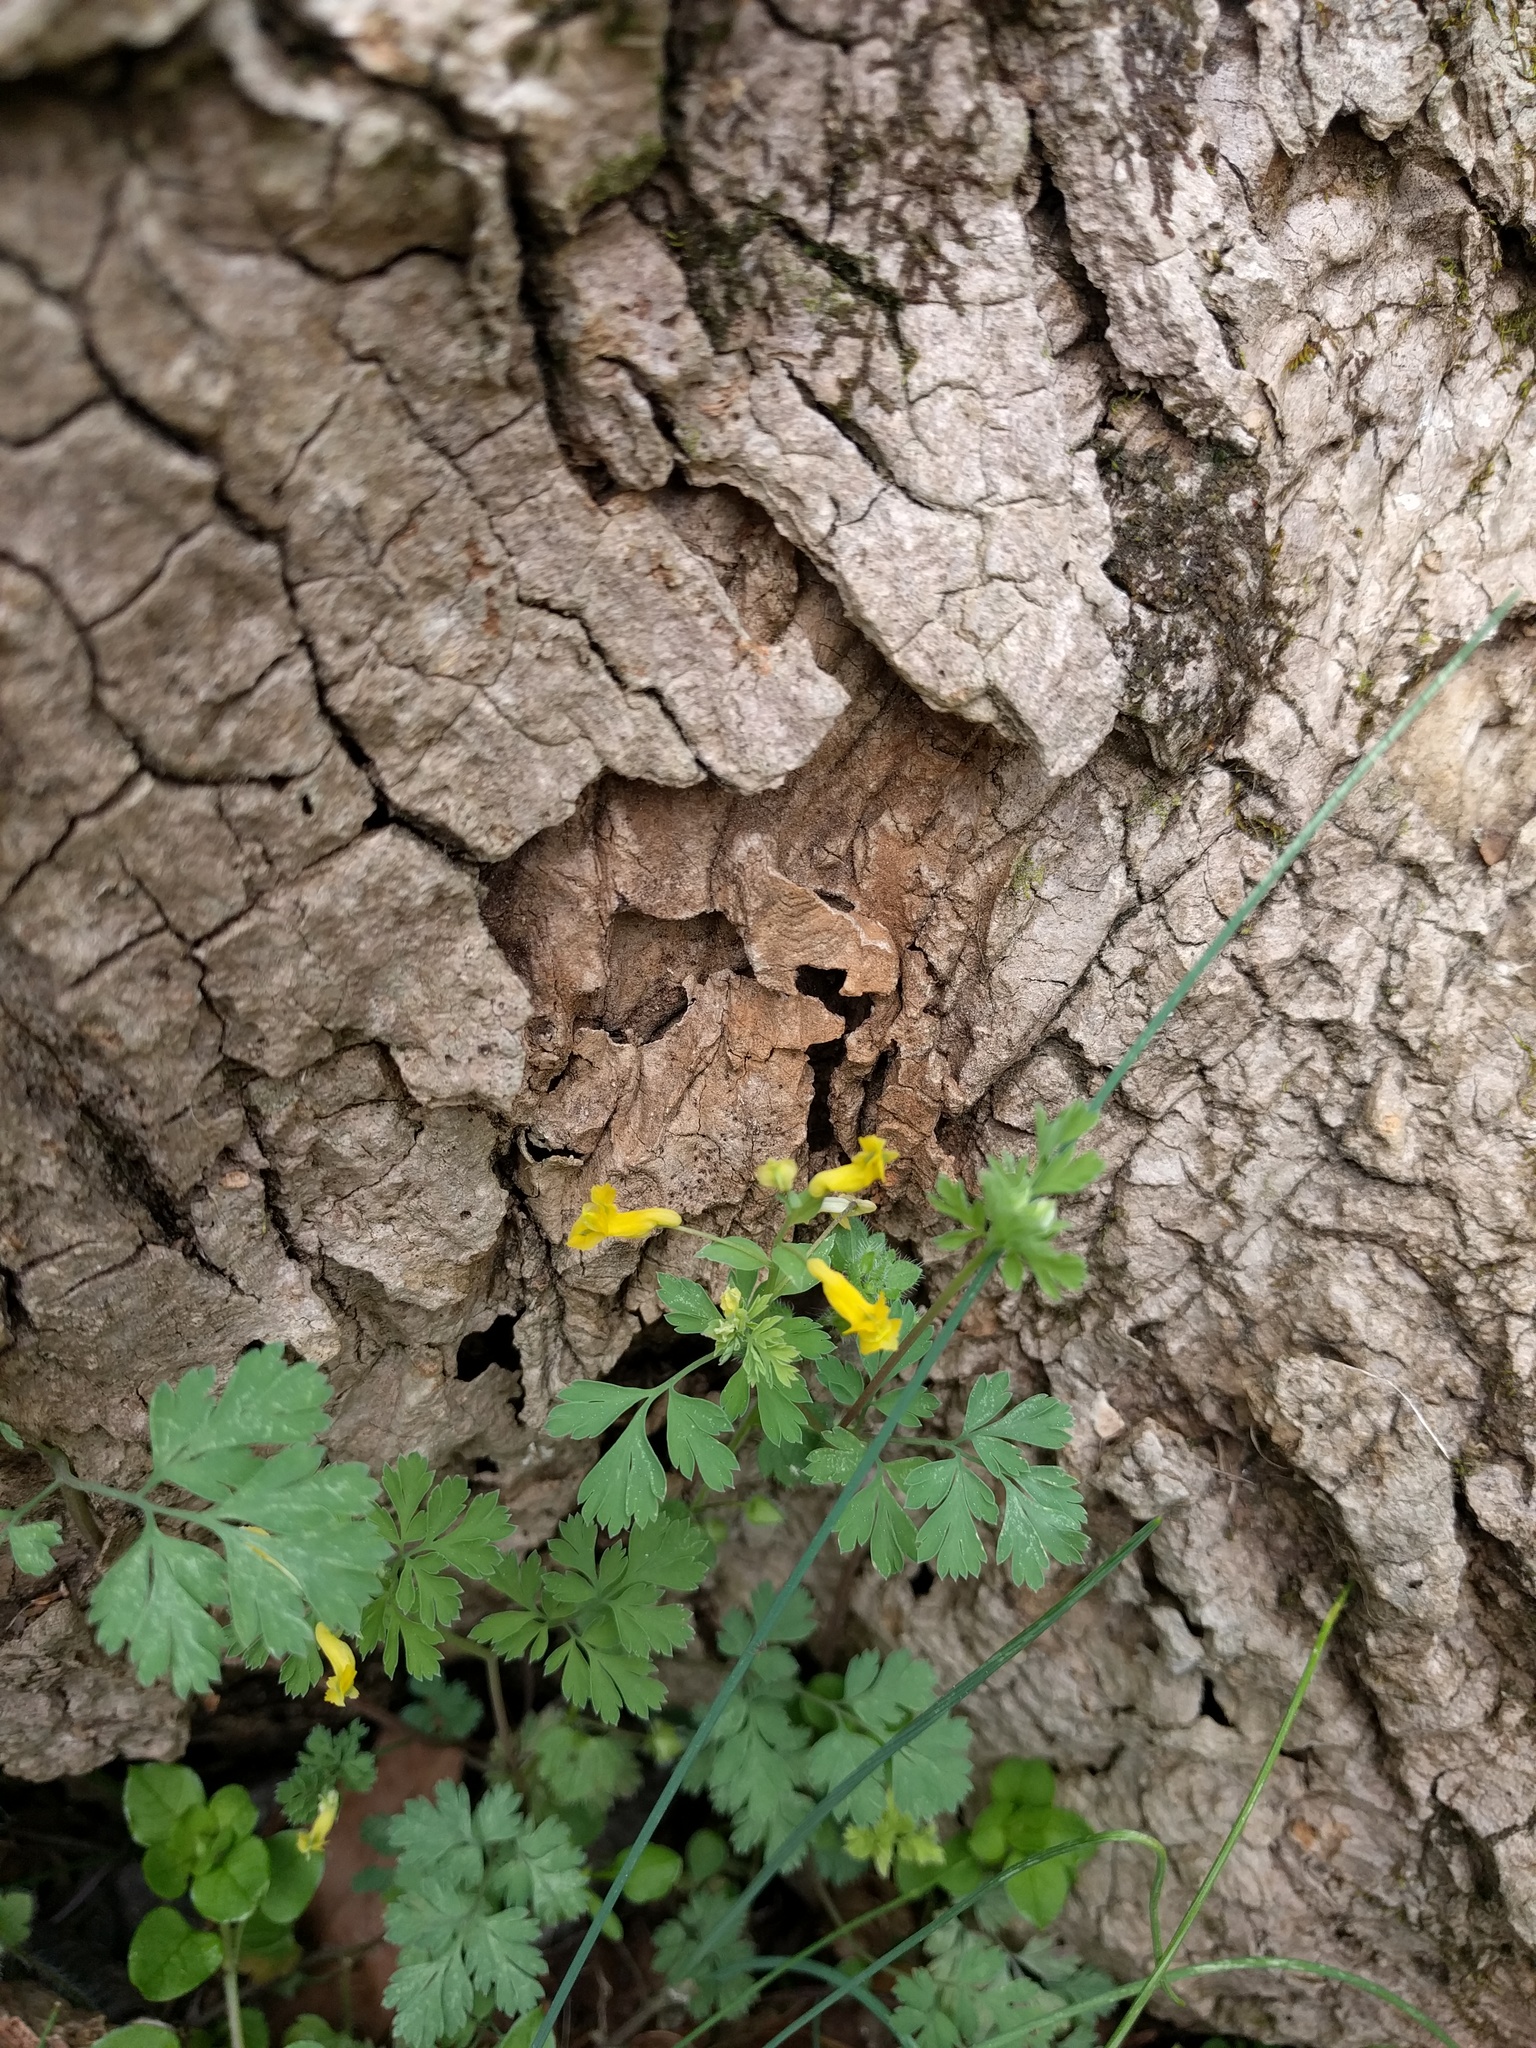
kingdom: Plantae
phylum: Tracheophyta
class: Magnoliopsida
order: Ranunculales
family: Papaveraceae
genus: Corydalis
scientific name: Corydalis flavula
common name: Yellow corydalis
